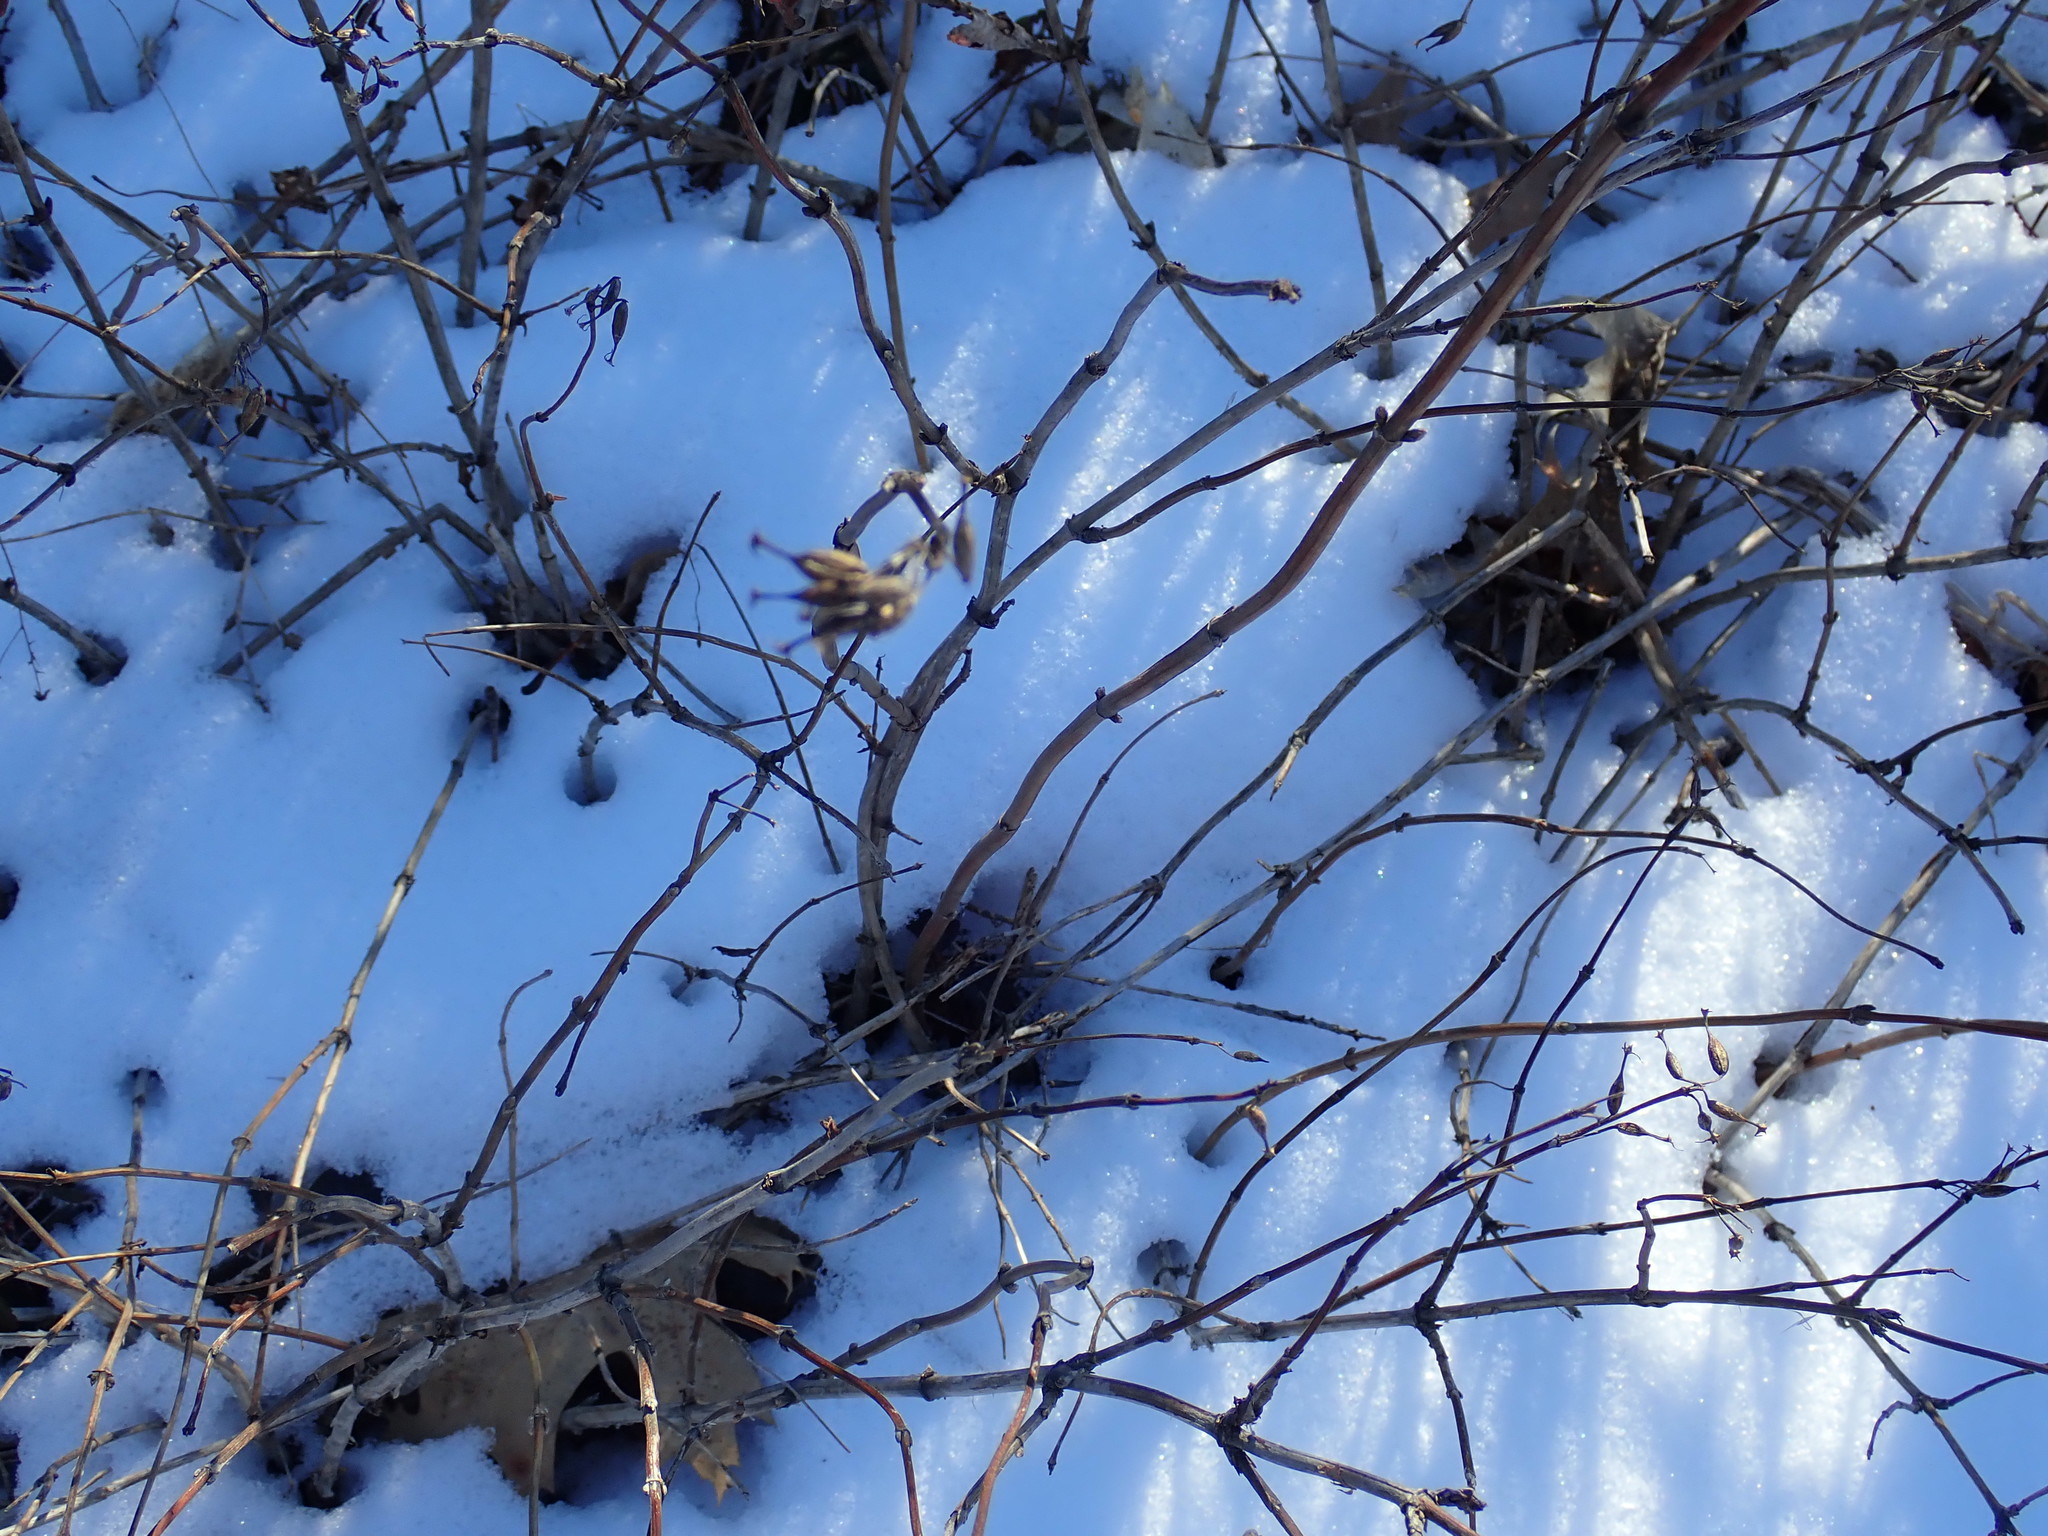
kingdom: Plantae
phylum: Tracheophyta
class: Magnoliopsida
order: Dipsacales
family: Caprifoliaceae
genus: Diervilla
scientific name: Diervilla lonicera
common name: Bush-honeysuckle
